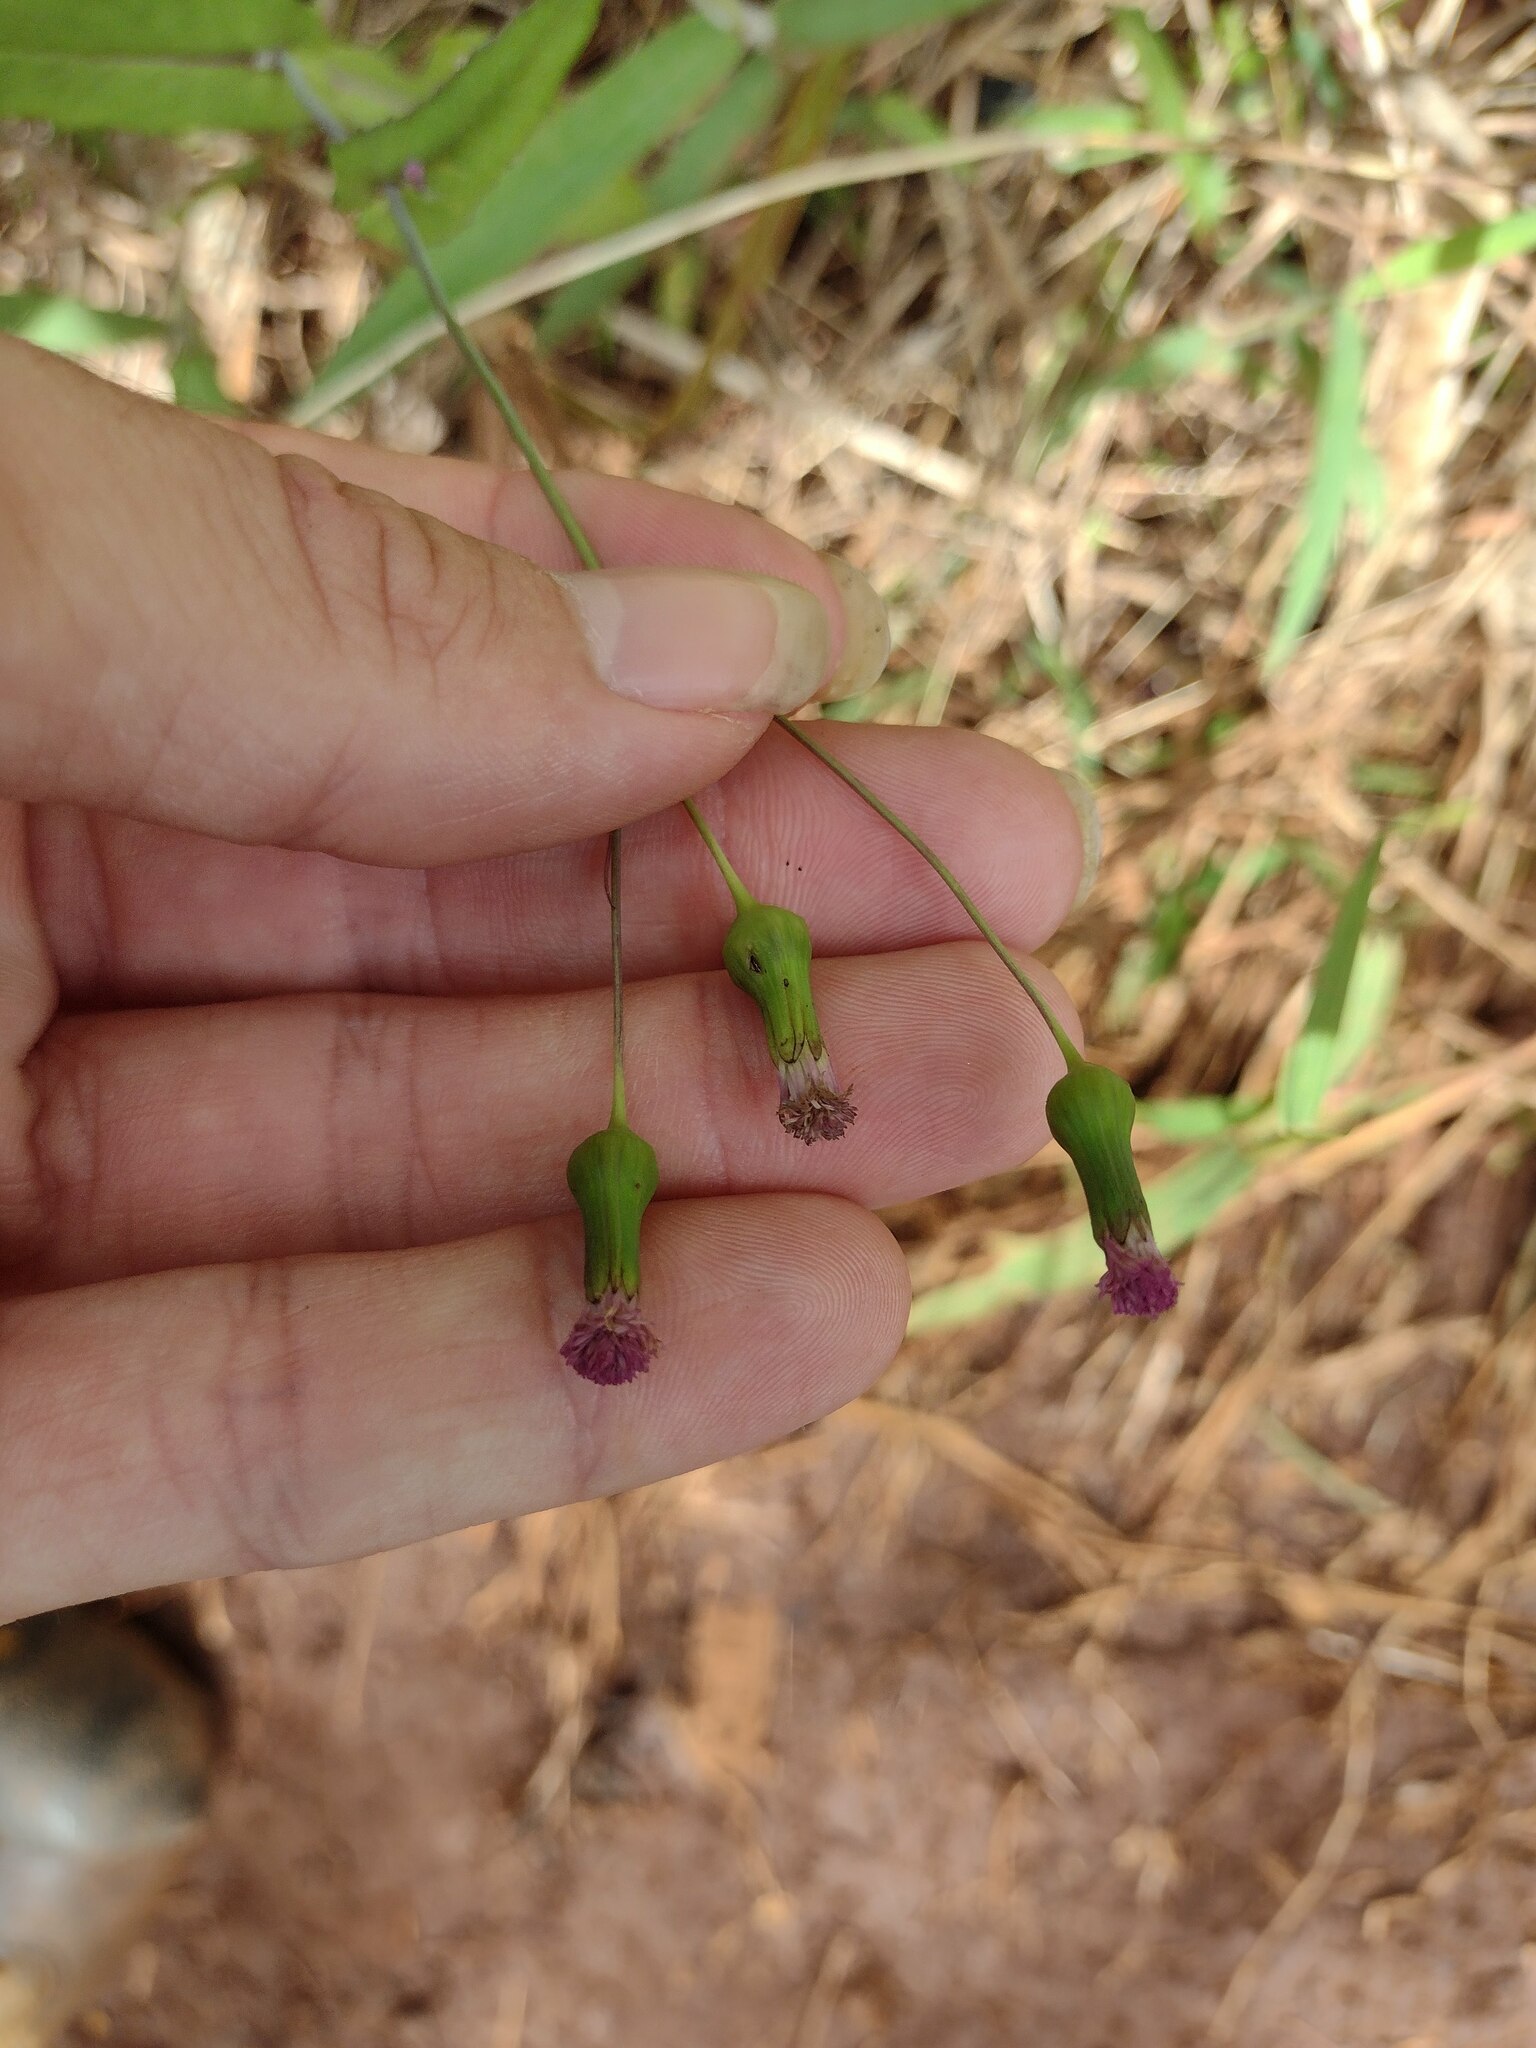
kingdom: Plantae
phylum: Tracheophyta
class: Magnoliopsida
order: Asterales
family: Asteraceae
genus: Emilia
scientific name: Emilia sonchifolia
